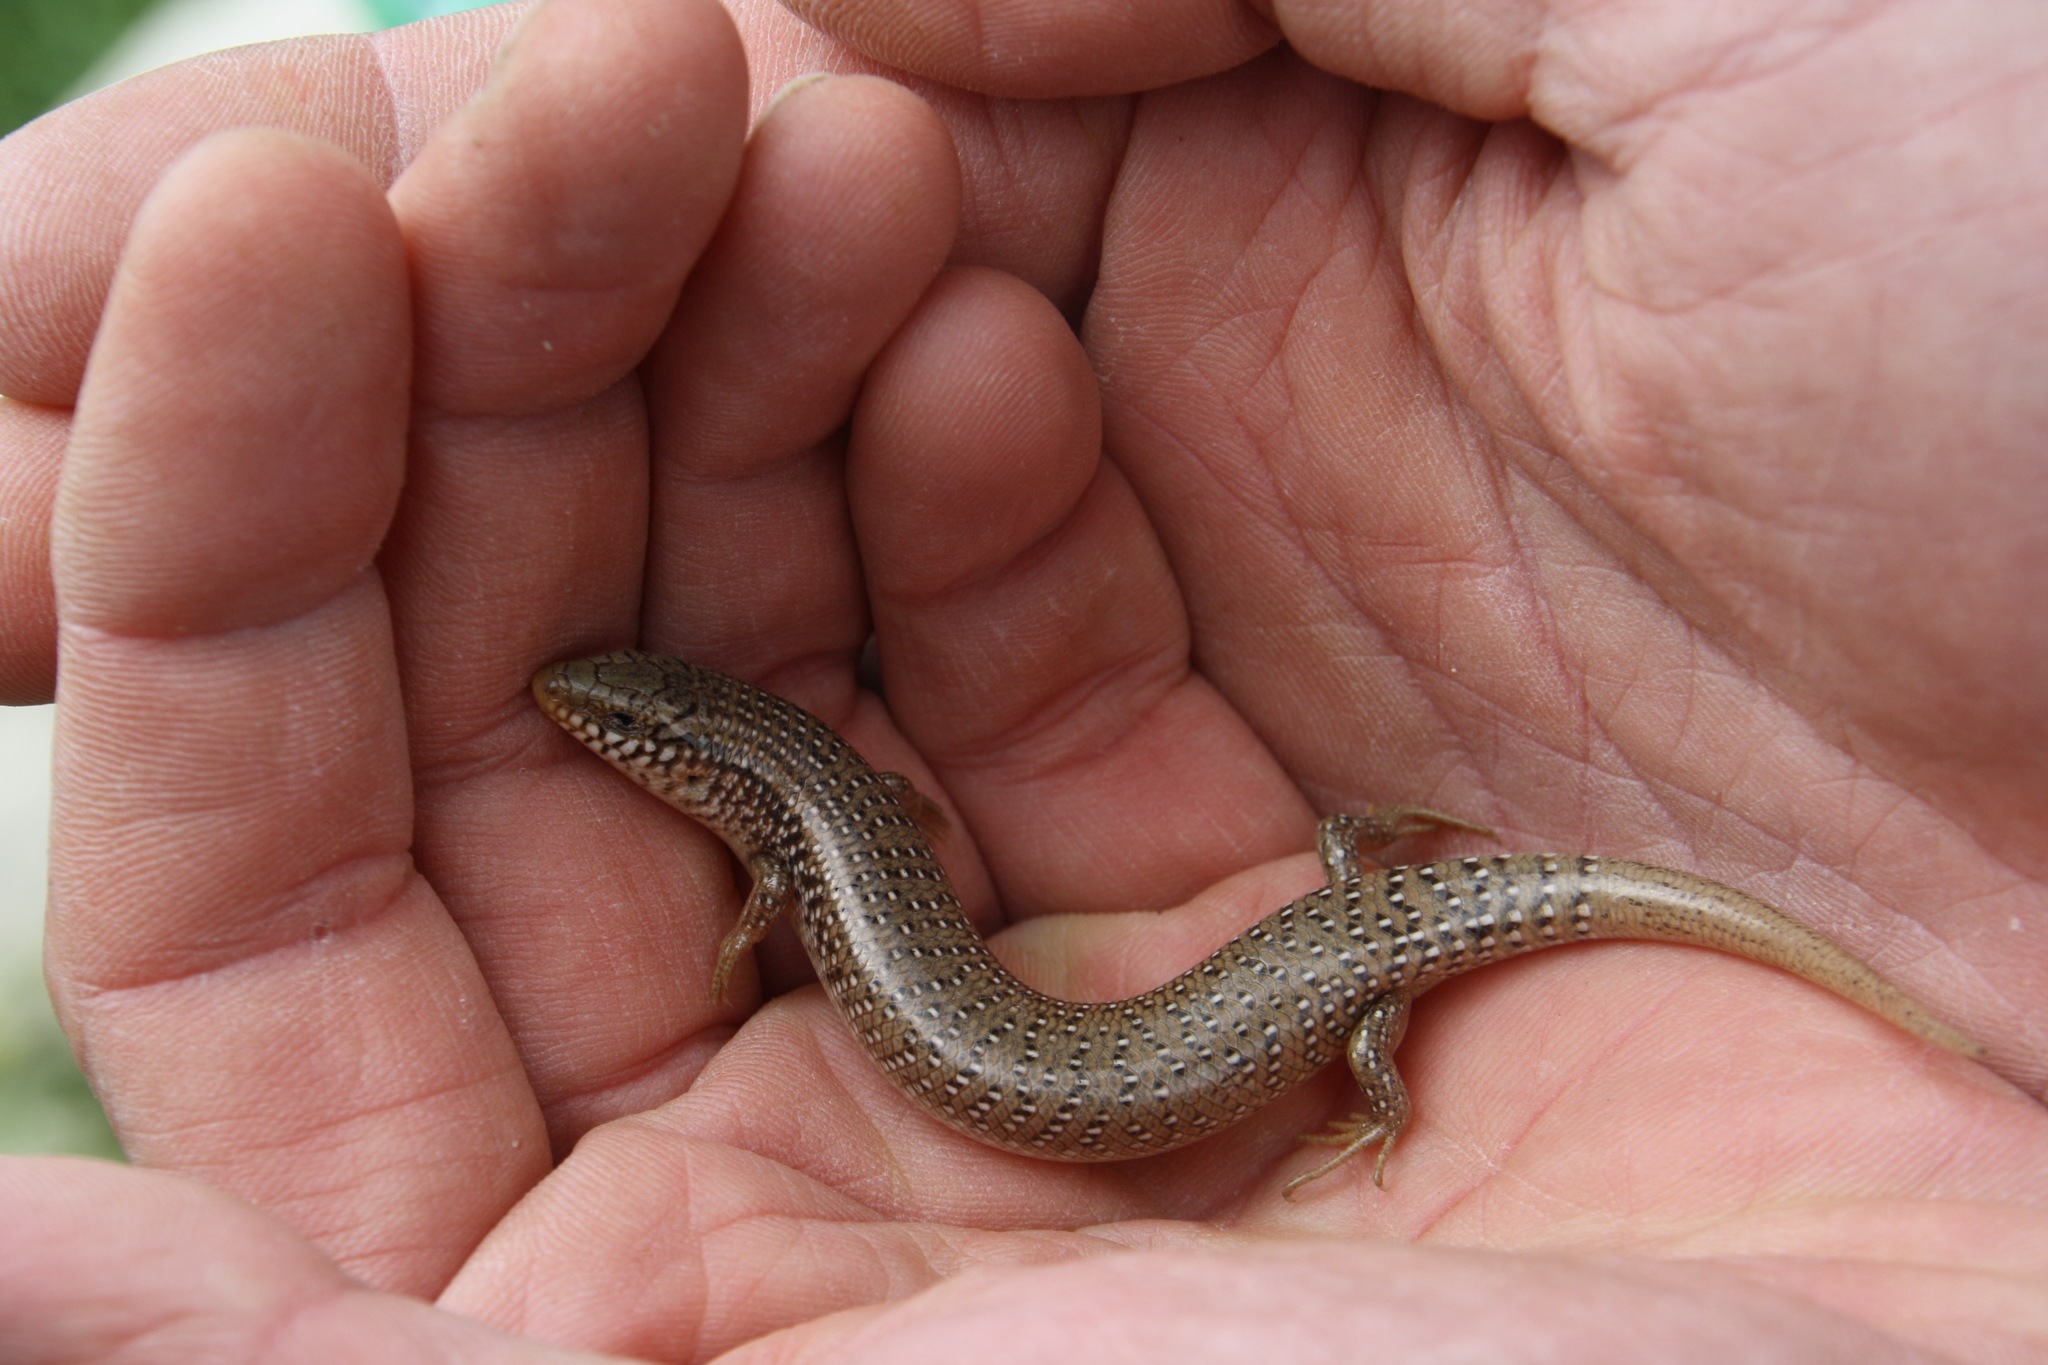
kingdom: Animalia
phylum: Chordata
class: Squamata
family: Scincidae
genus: Chalcides
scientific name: Chalcides ocellatus
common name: Ocellated skink
